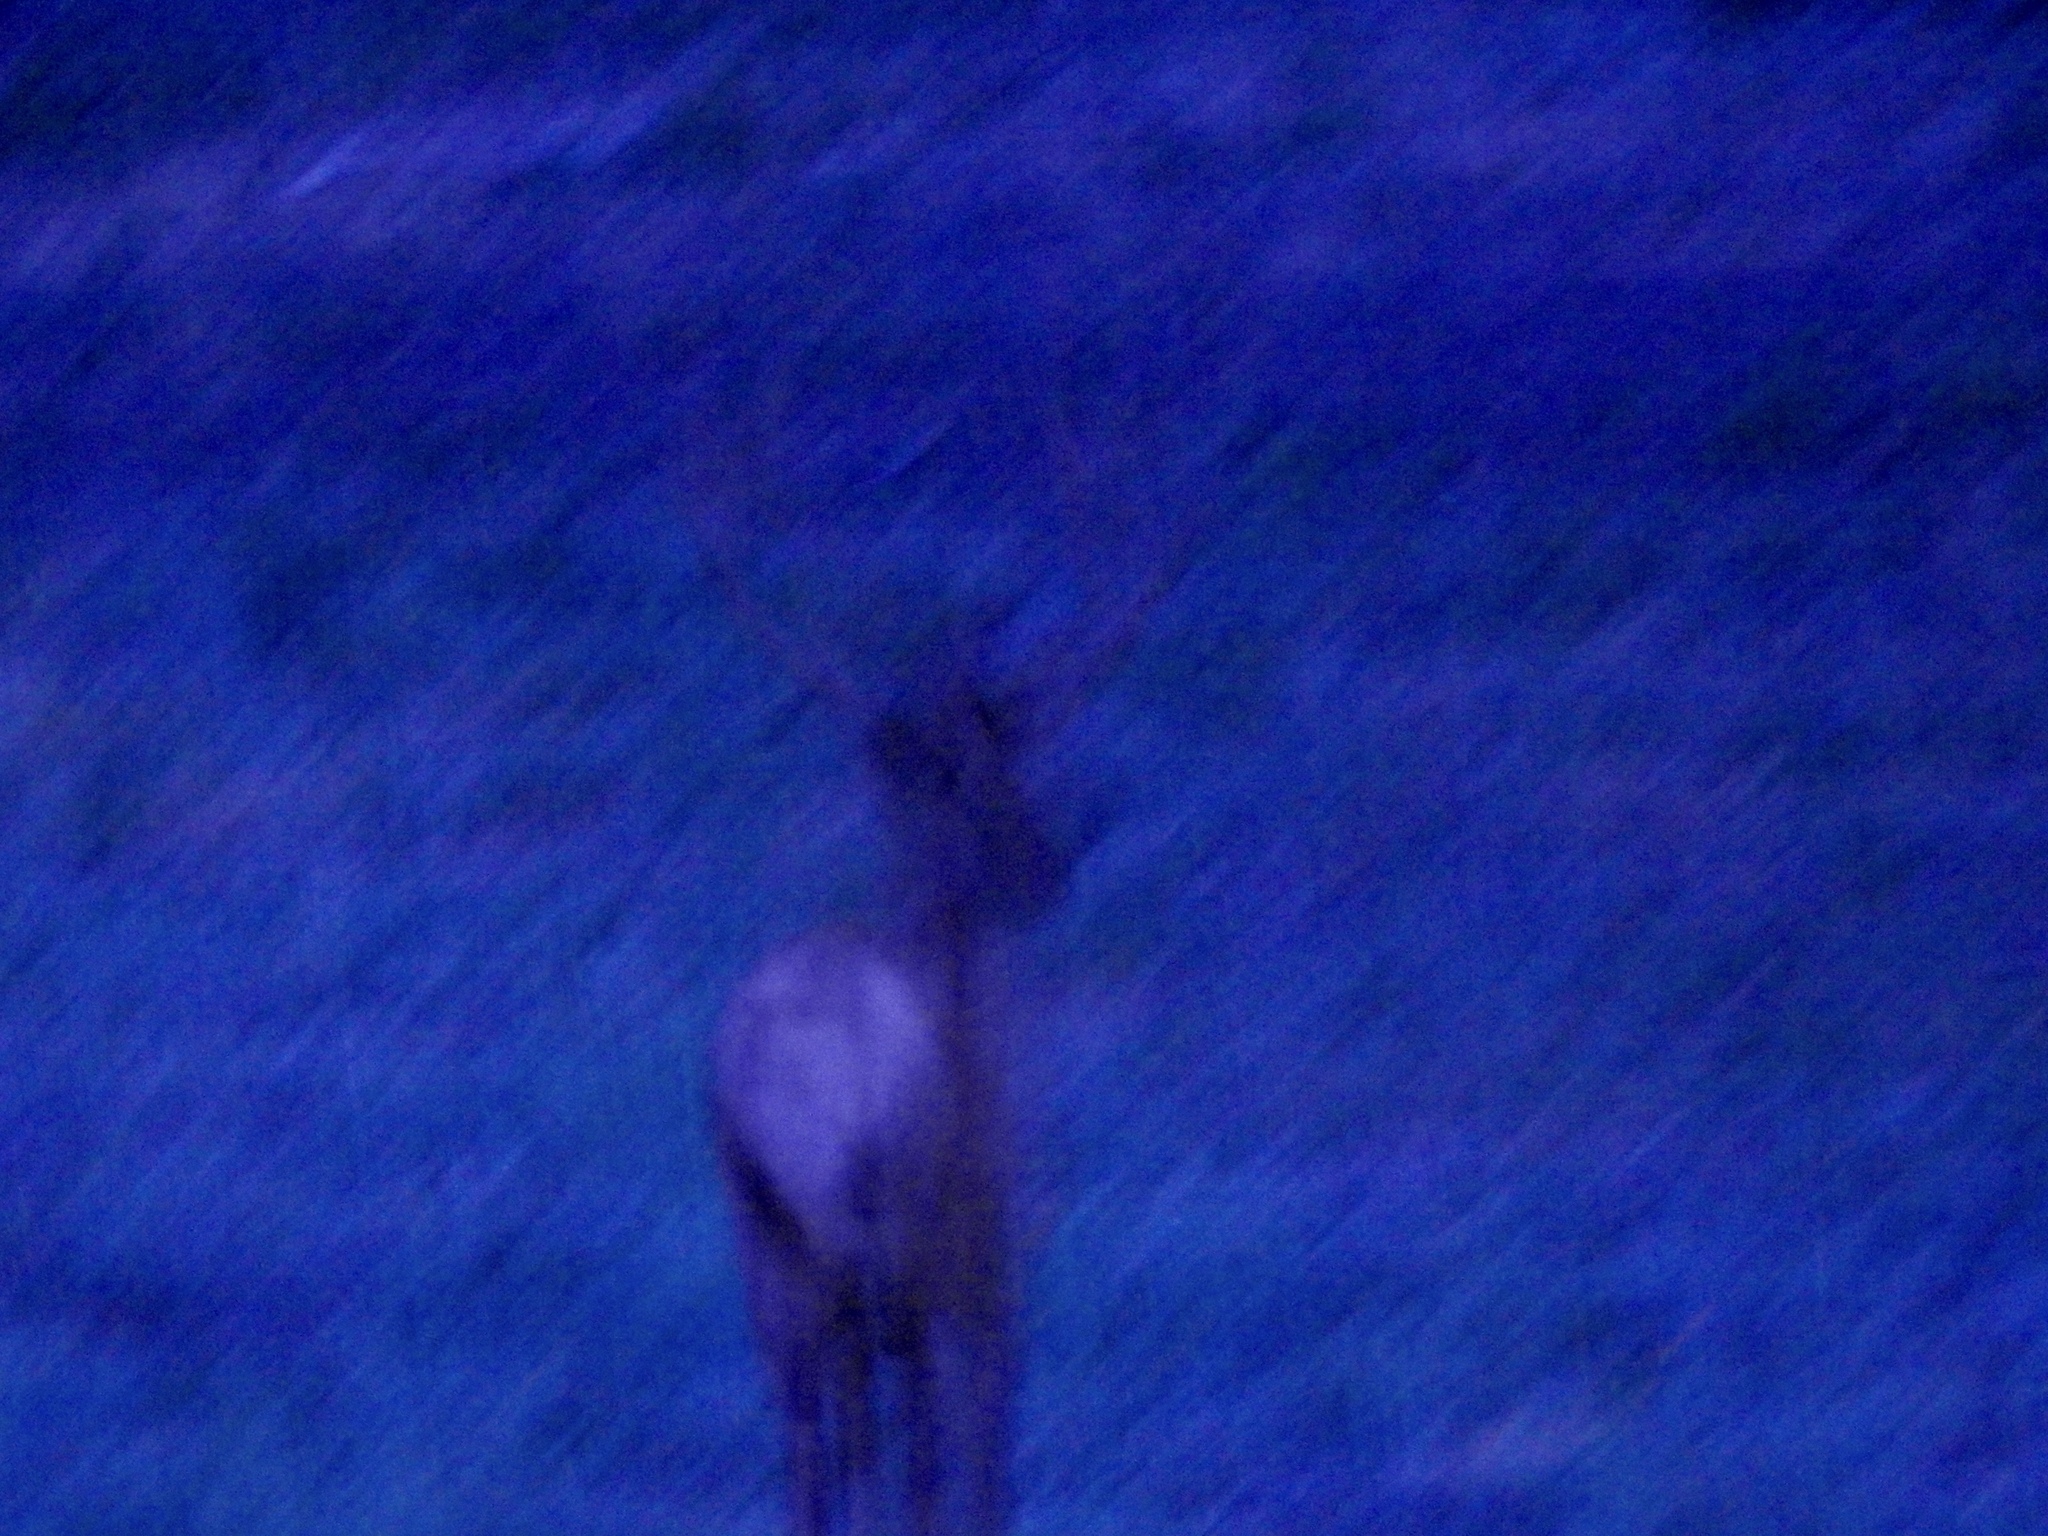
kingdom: Animalia
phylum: Chordata
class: Mammalia
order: Artiodactyla
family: Cervidae
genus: Cervus
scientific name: Cervus elaphus
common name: Red deer
